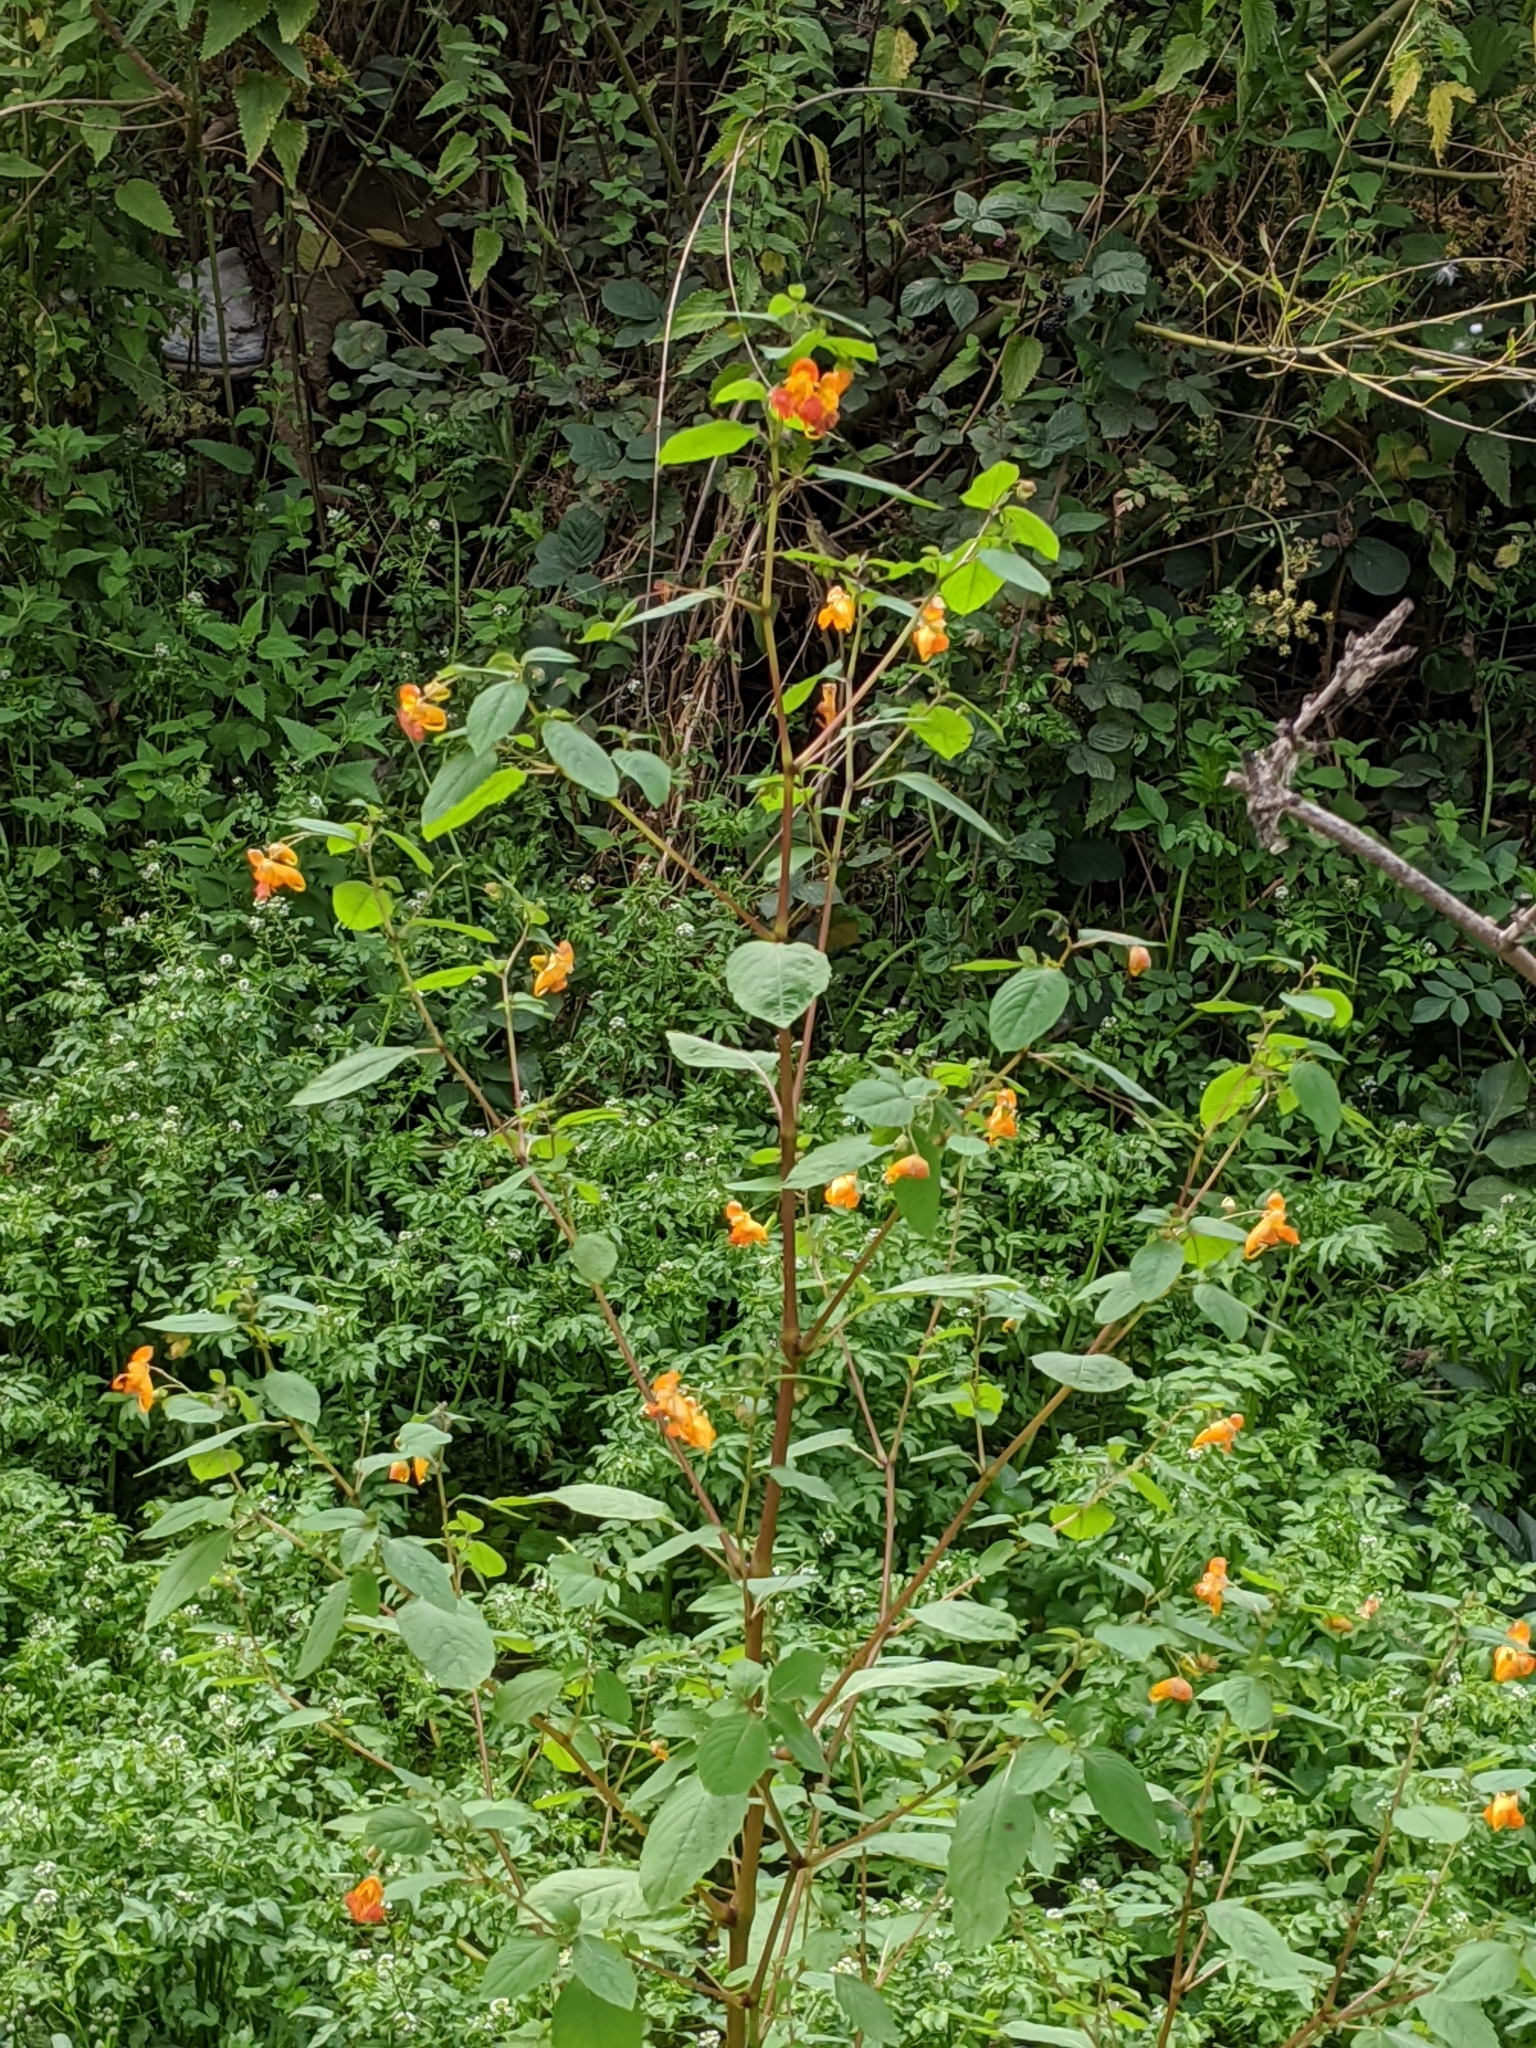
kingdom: Plantae
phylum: Tracheophyta
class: Magnoliopsida
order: Ericales
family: Balsaminaceae
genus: Impatiens
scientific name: Impatiens capensis
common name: Orange balsam
